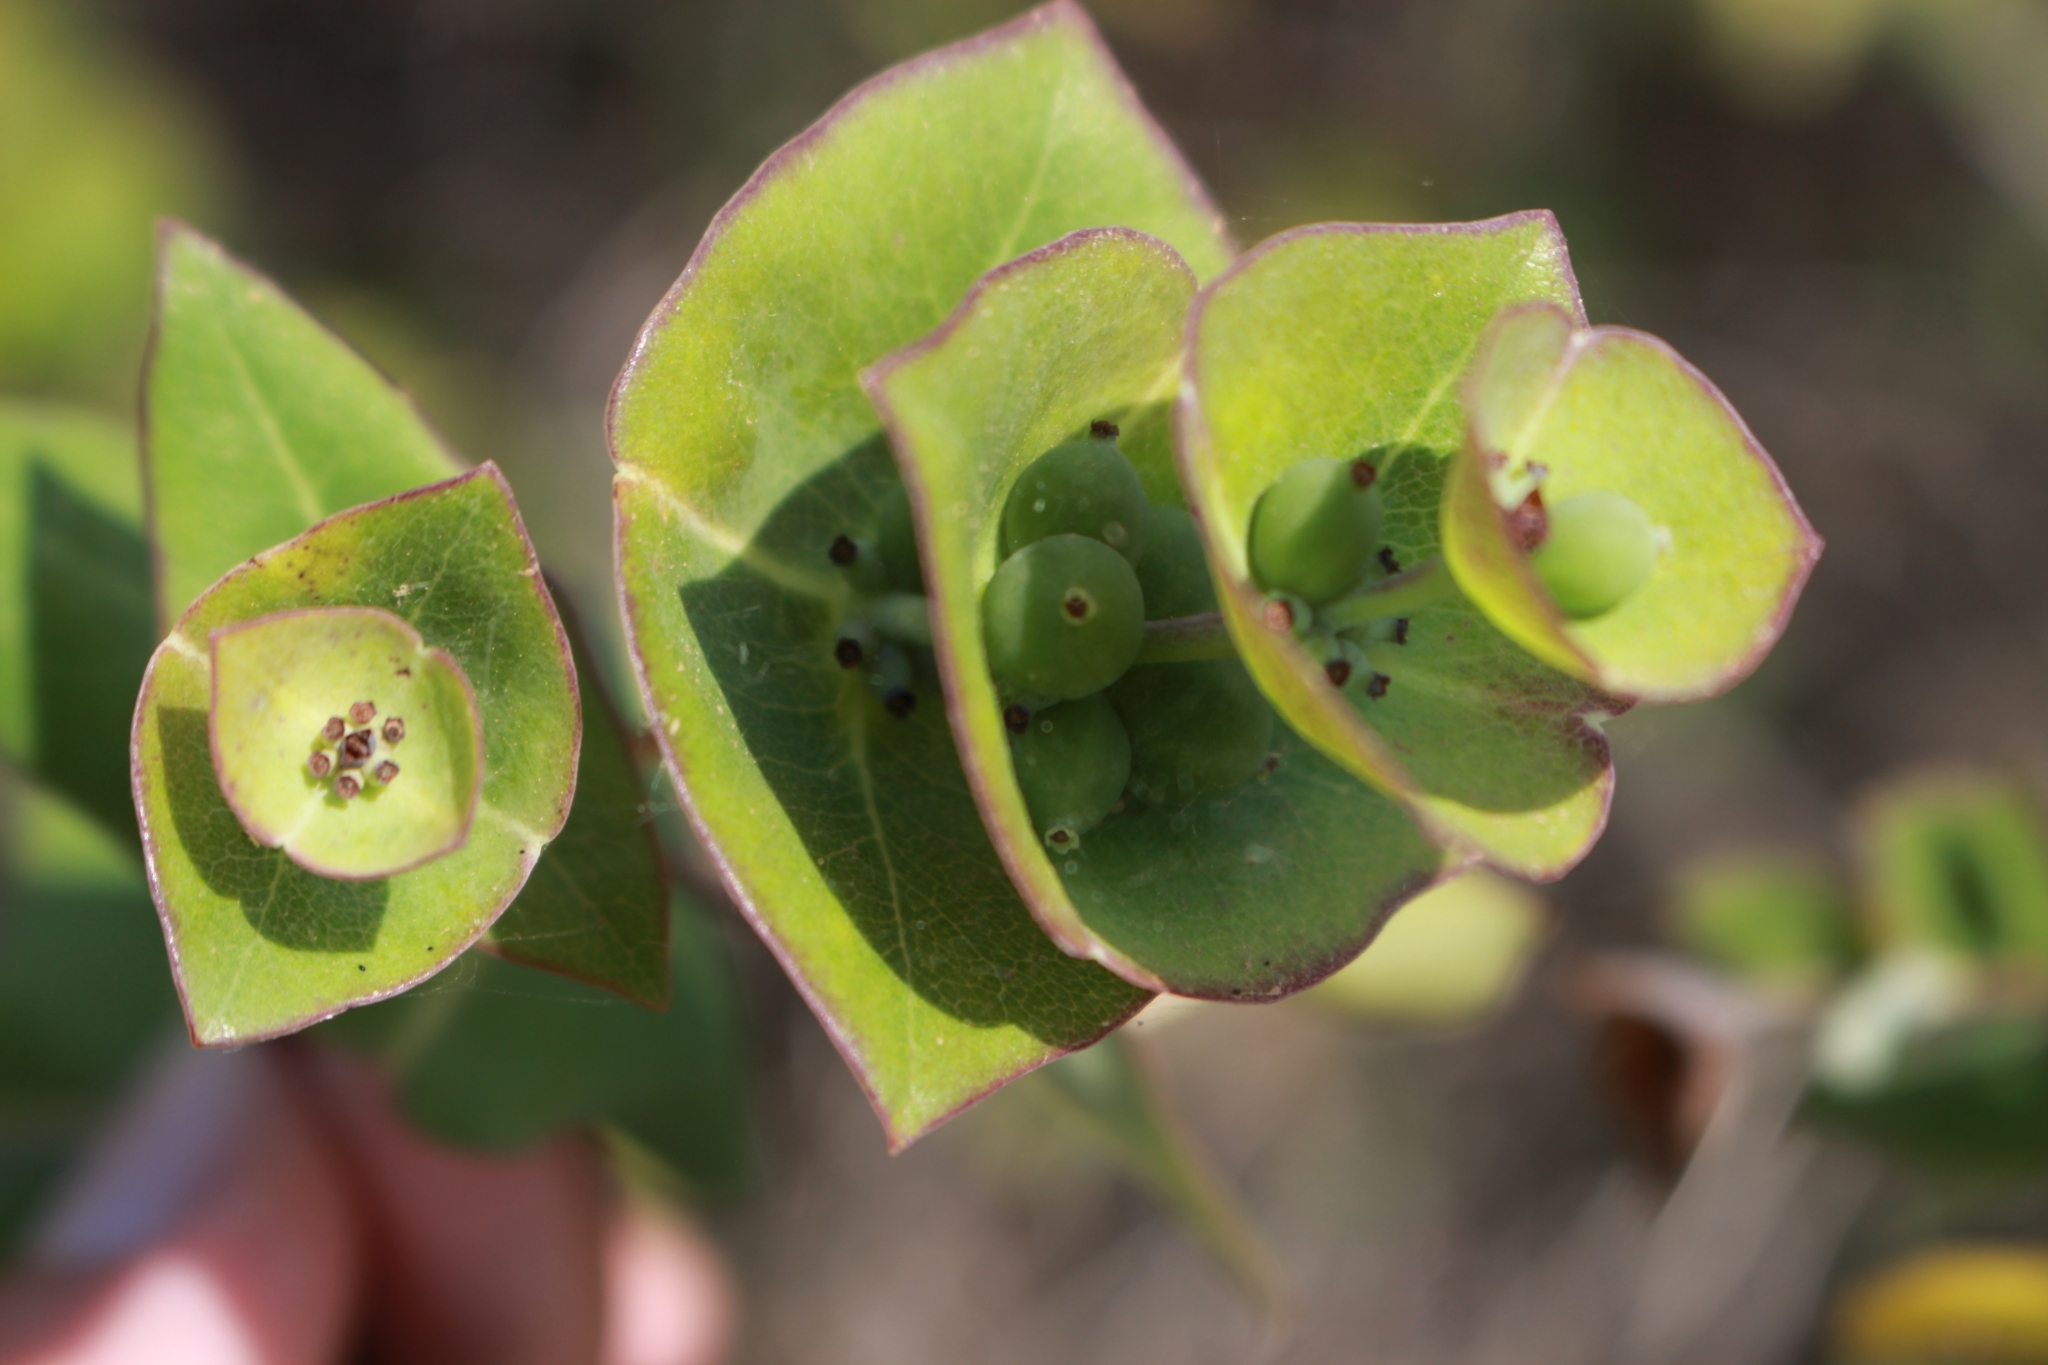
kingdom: Plantae
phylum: Tracheophyta
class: Magnoliopsida
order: Dipsacales
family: Caprifoliaceae
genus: Lonicera
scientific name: Lonicera implexa
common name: Minorca honeysuckle
